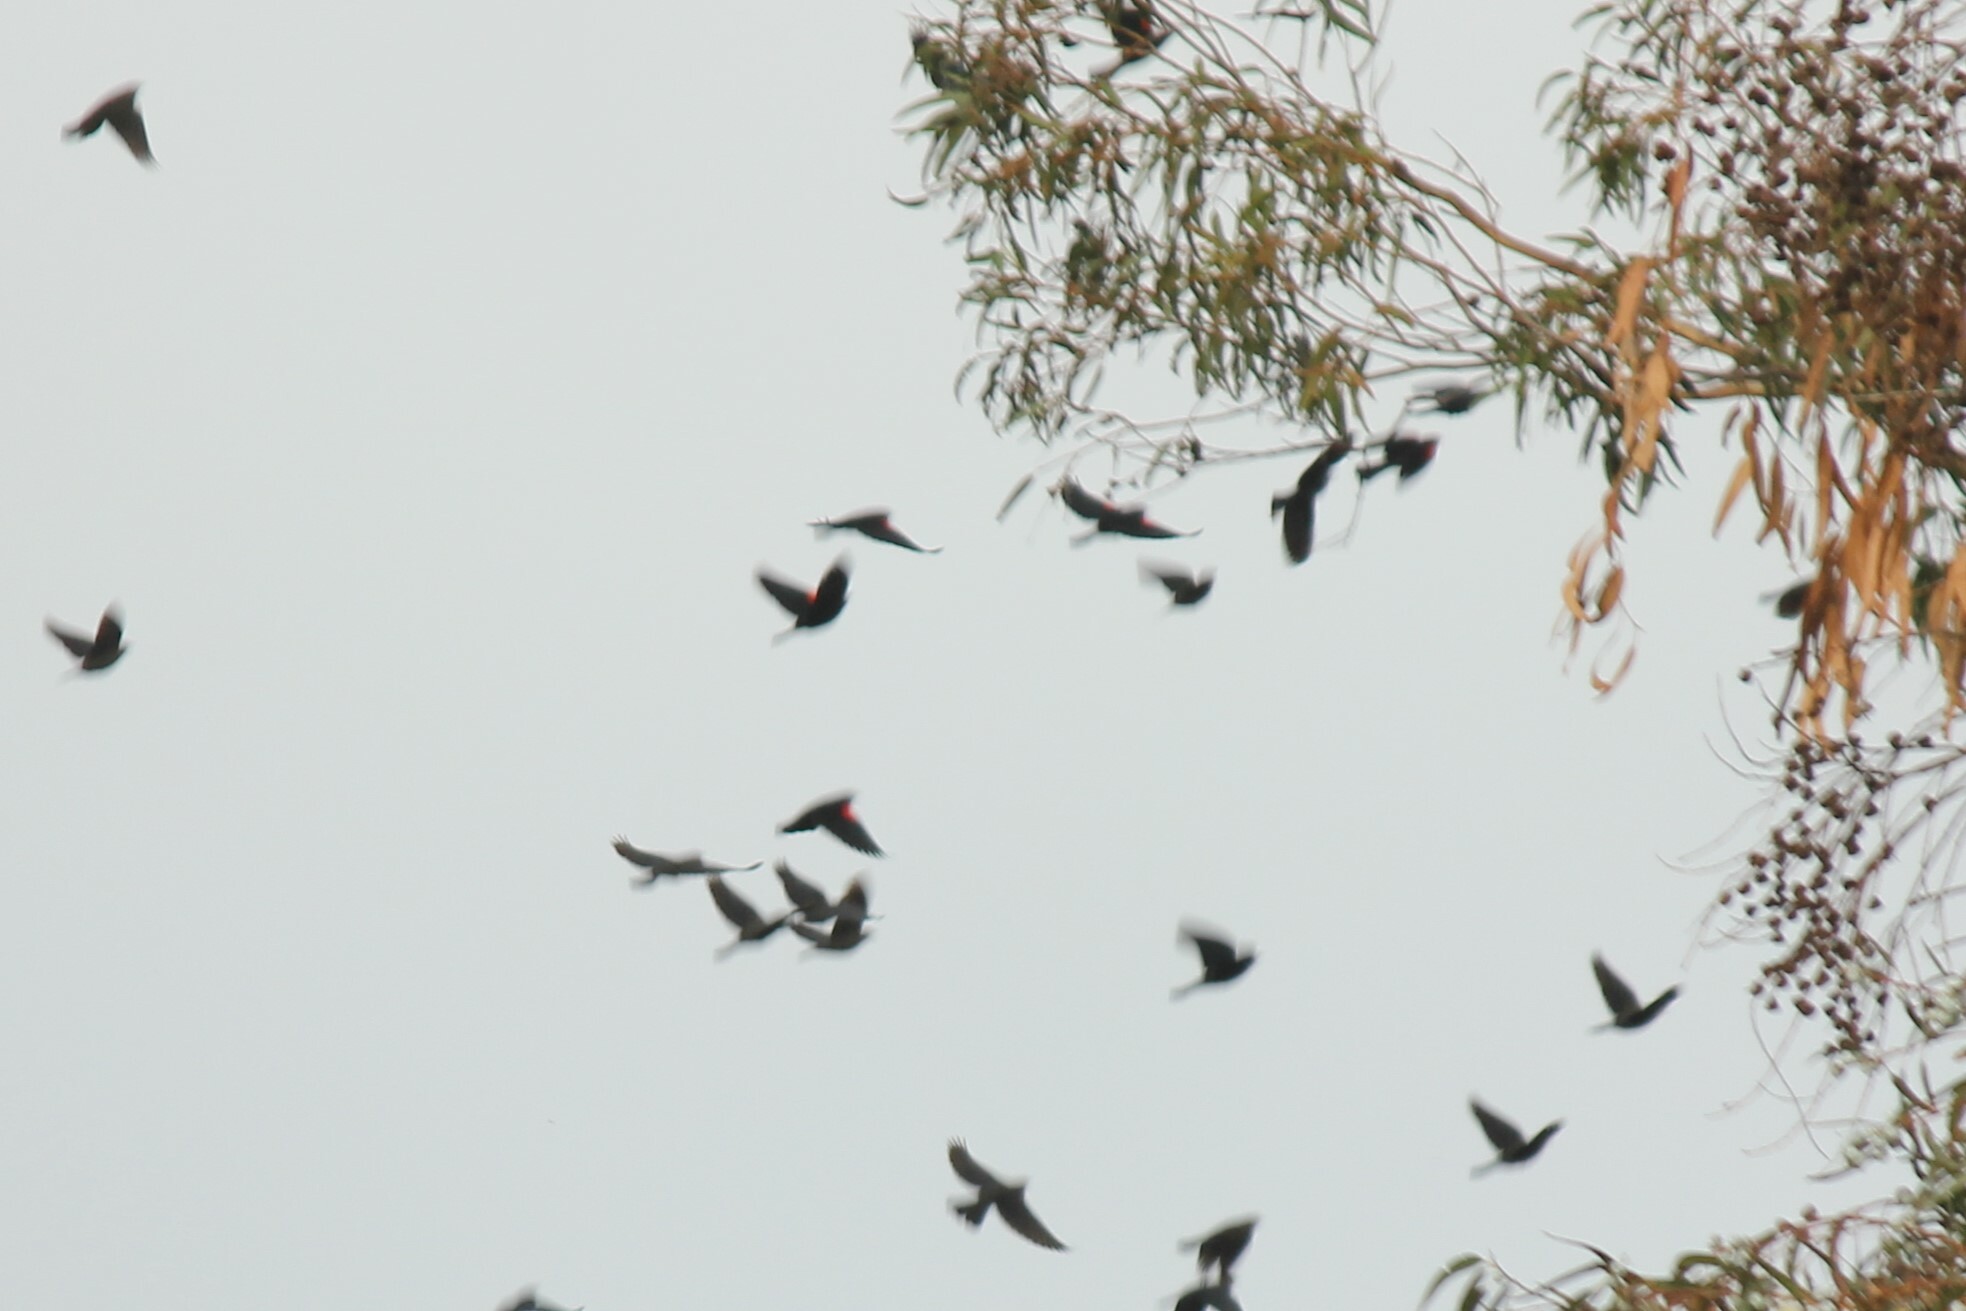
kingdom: Animalia
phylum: Chordata
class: Aves
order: Passeriformes
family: Icteridae
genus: Agelaius
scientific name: Agelaius phoeniceus
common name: Red-winged blackbird
